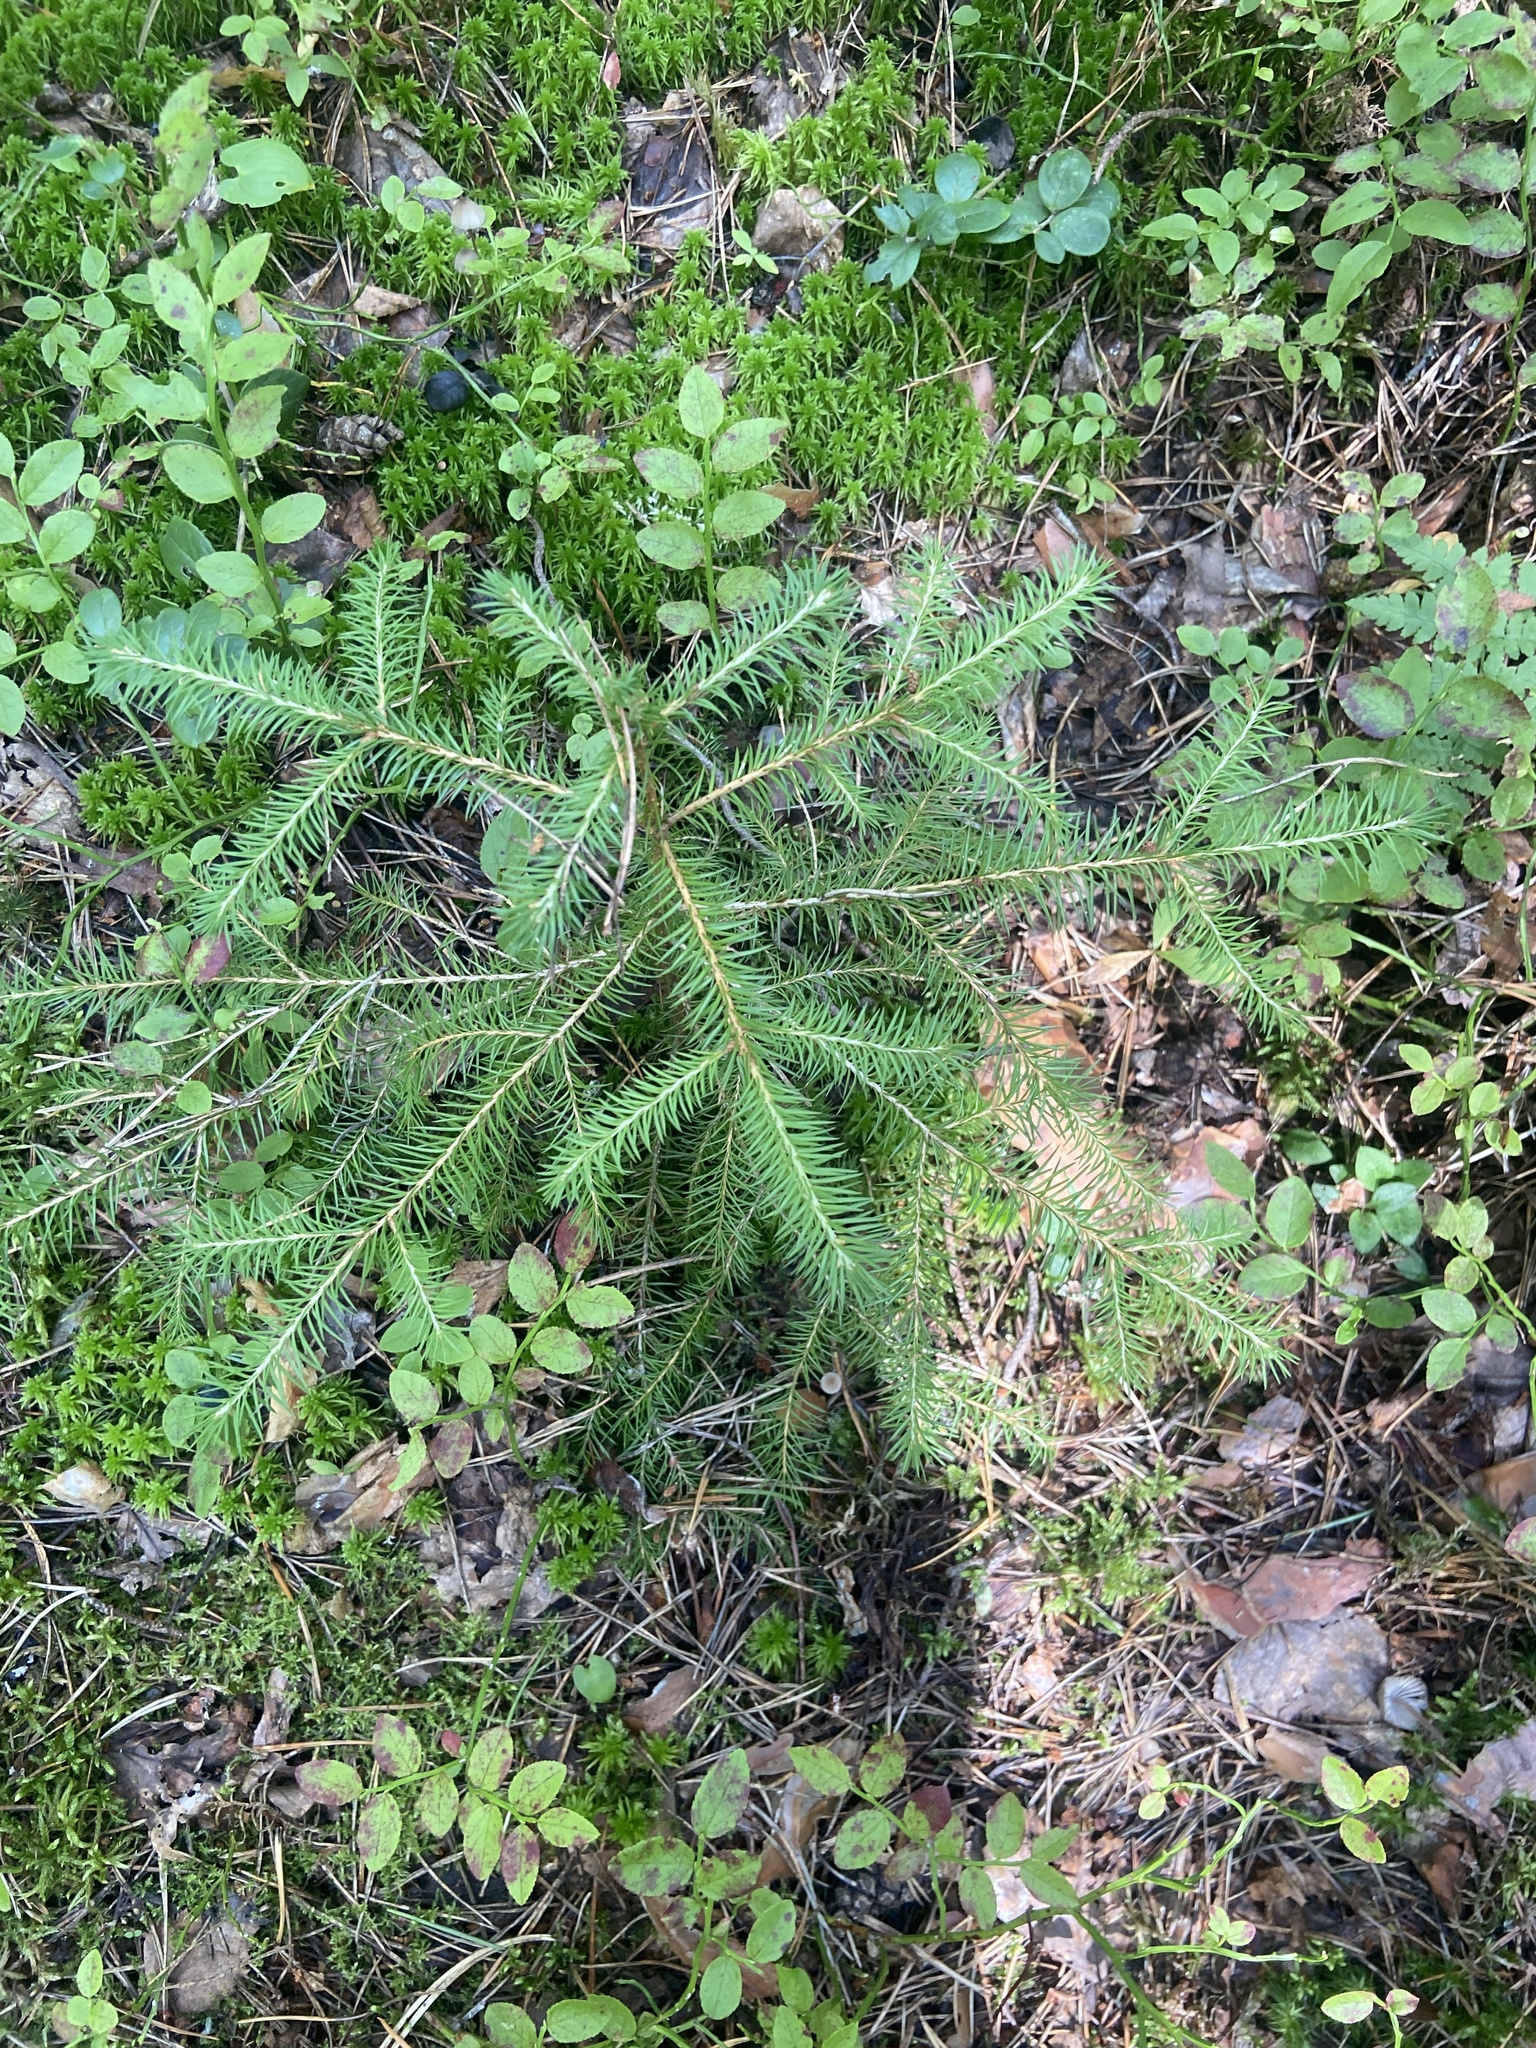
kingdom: Plantae
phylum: Tracheophyta
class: Pinopsida
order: Pinales
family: Pinaceae
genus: Picea
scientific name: Picea abies
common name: Norway spruce
